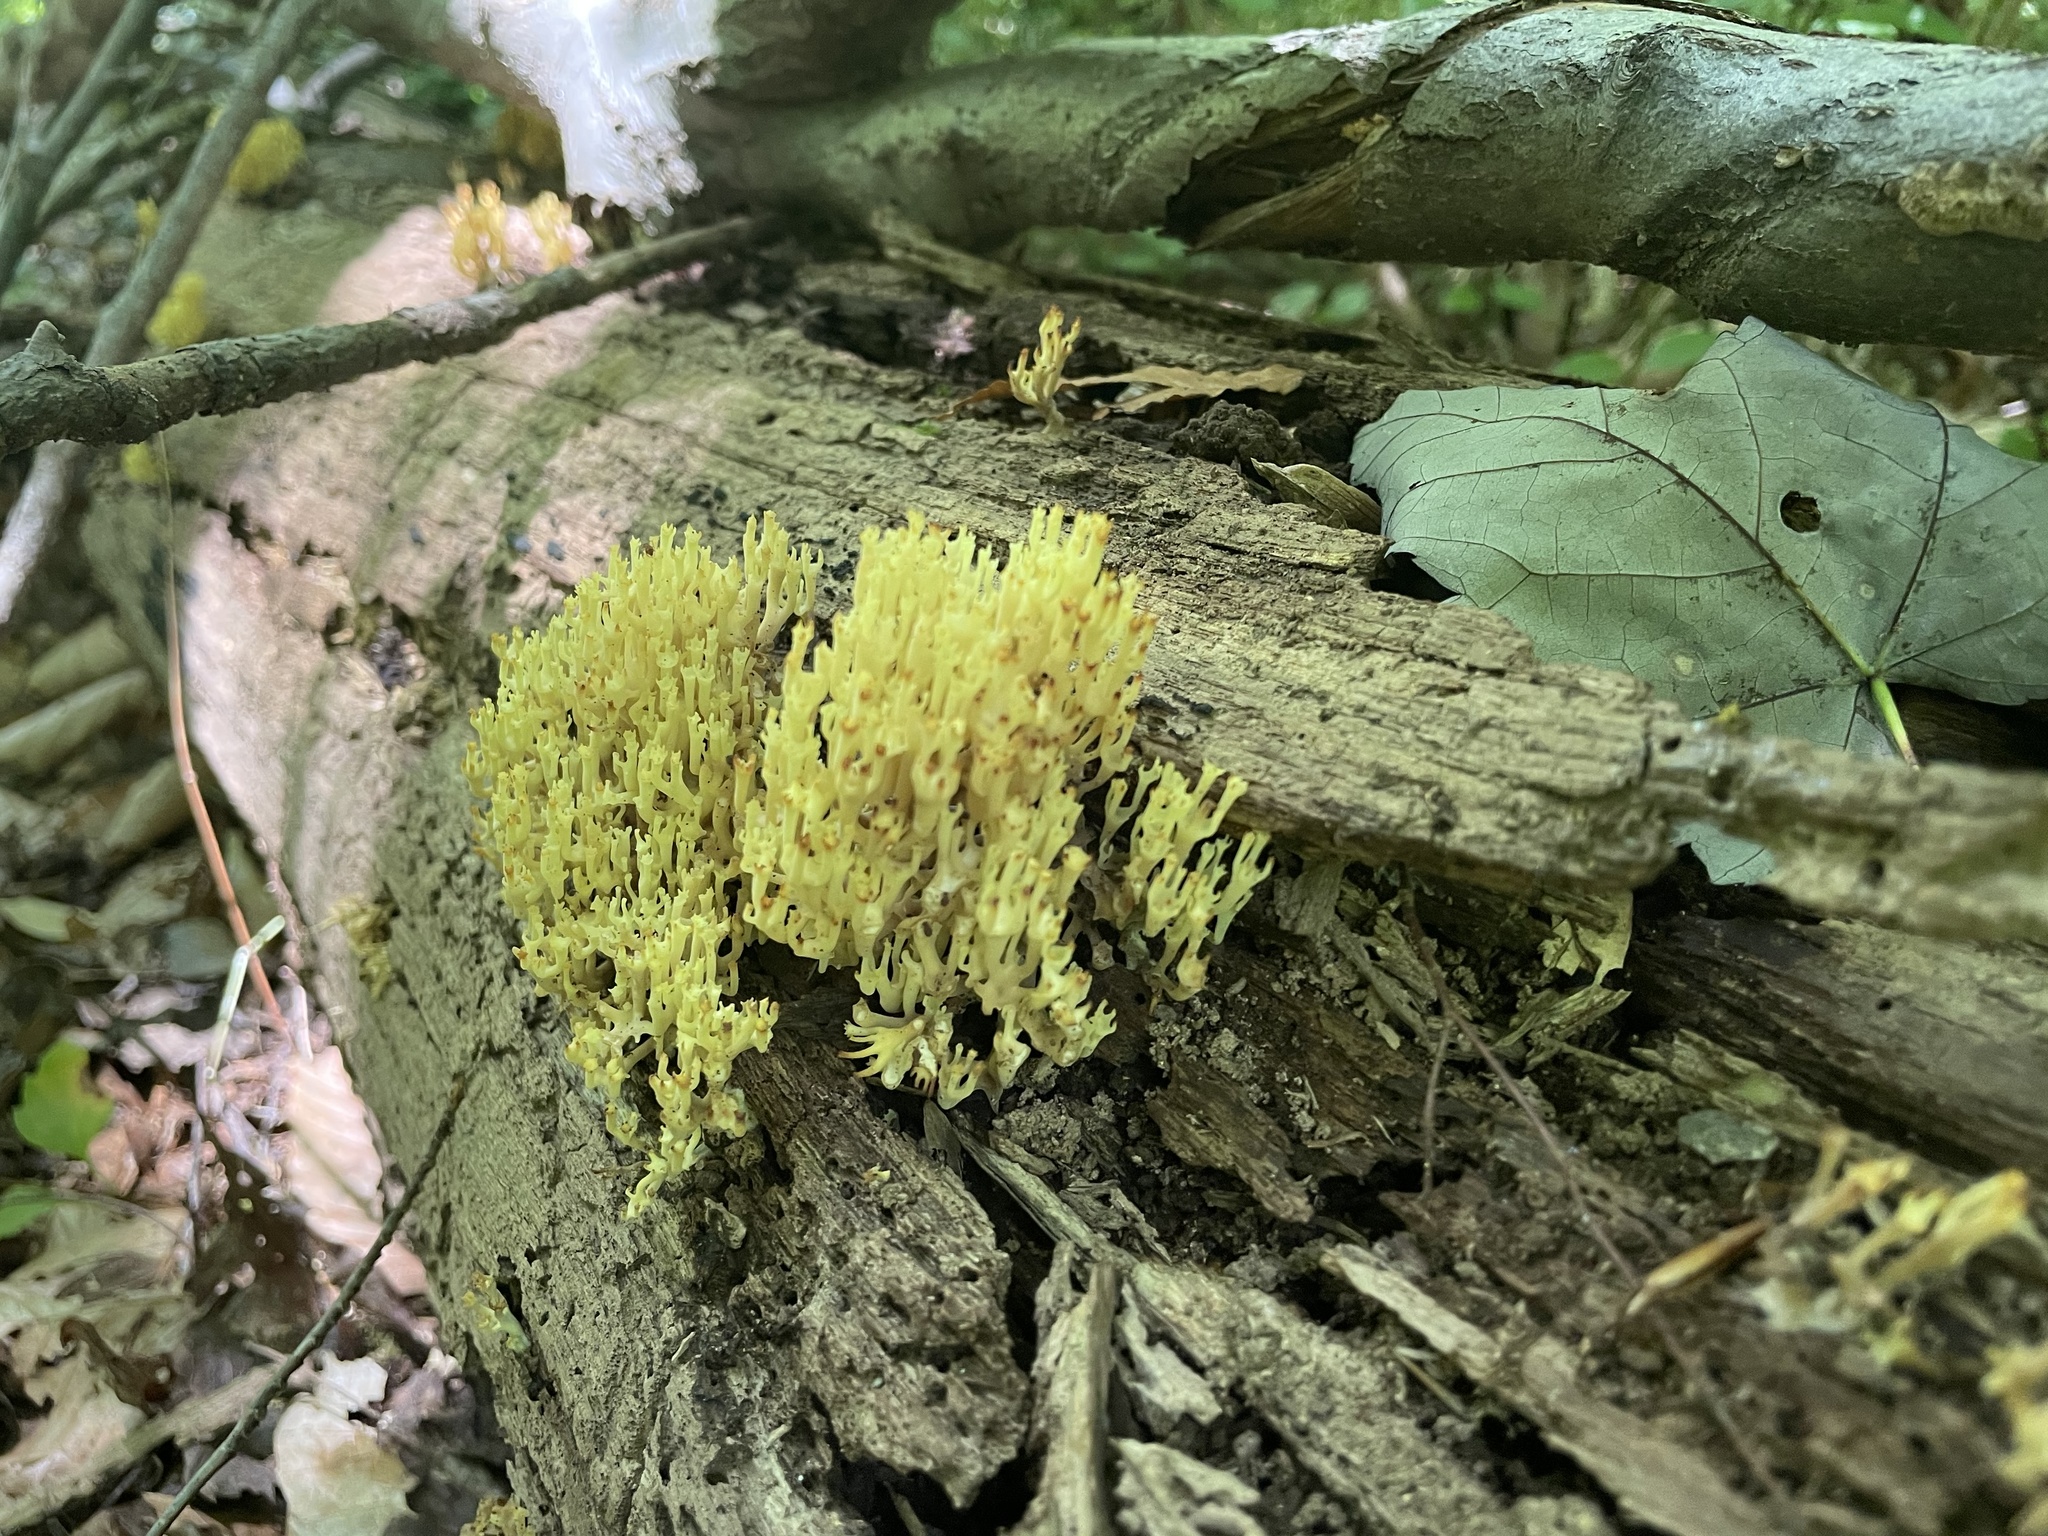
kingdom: Fungi
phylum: Basidiomycota
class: Agaricomycetes
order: Russulales
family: Auriscalpiaceae
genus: Artomyces
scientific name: Artomyces pyxidatus
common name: Crown-tipped coral fungus
